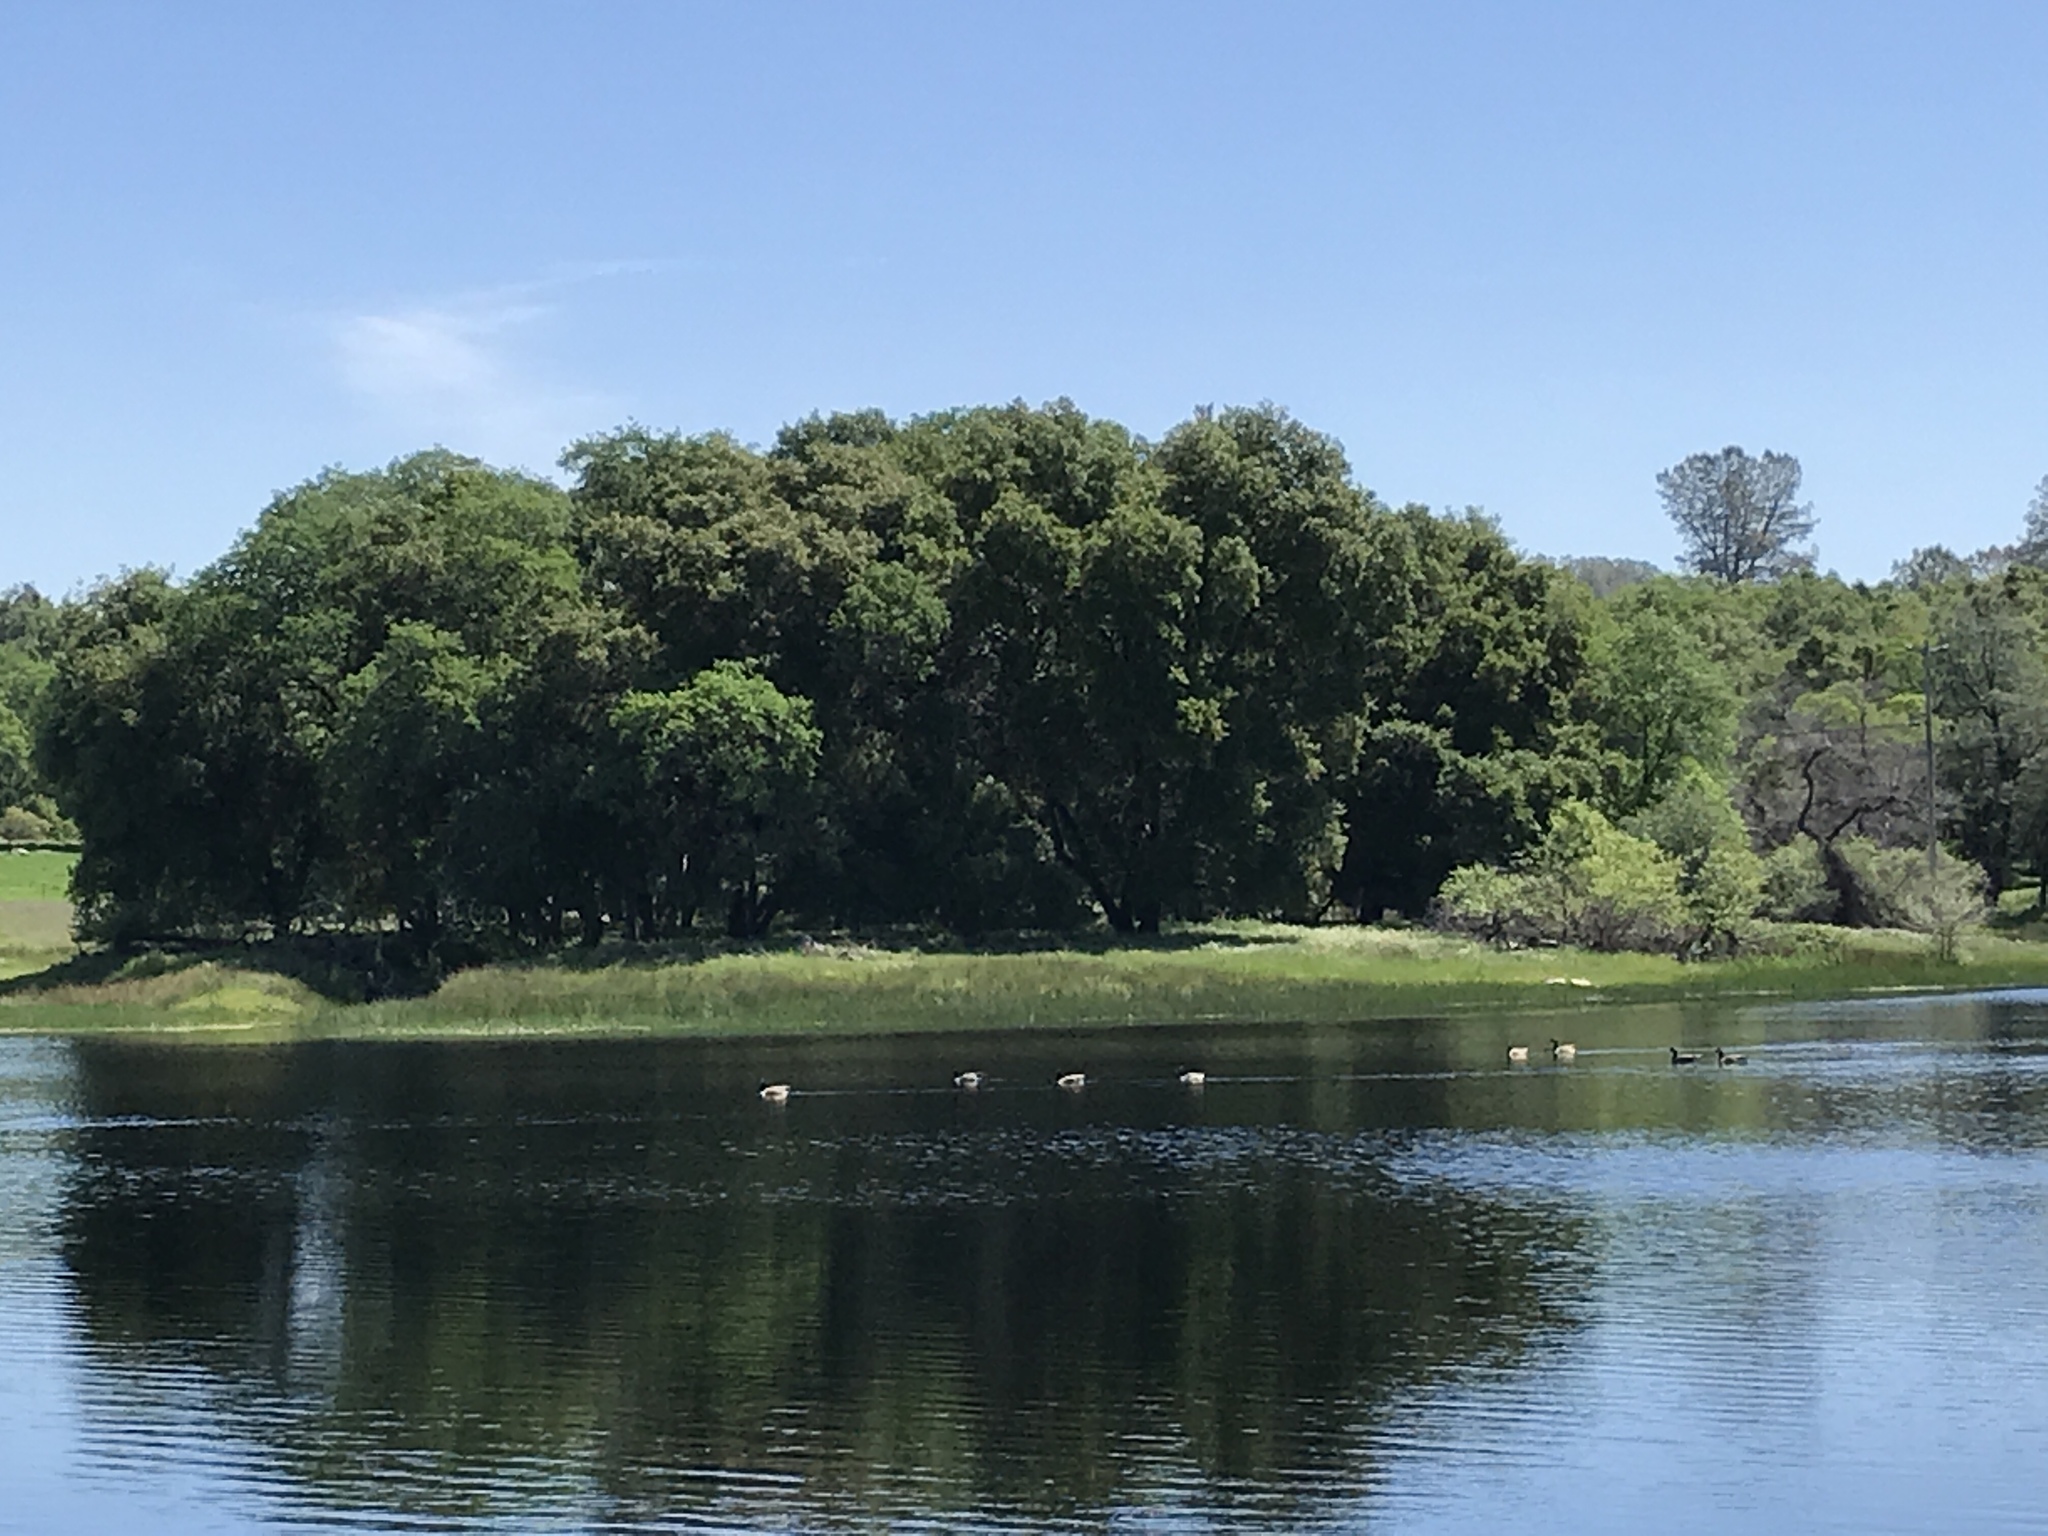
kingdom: Animalia
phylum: Chordata
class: Aves
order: Anseriformes
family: Anatidae
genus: Branta
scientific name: Branta canadensis
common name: Canada goose
